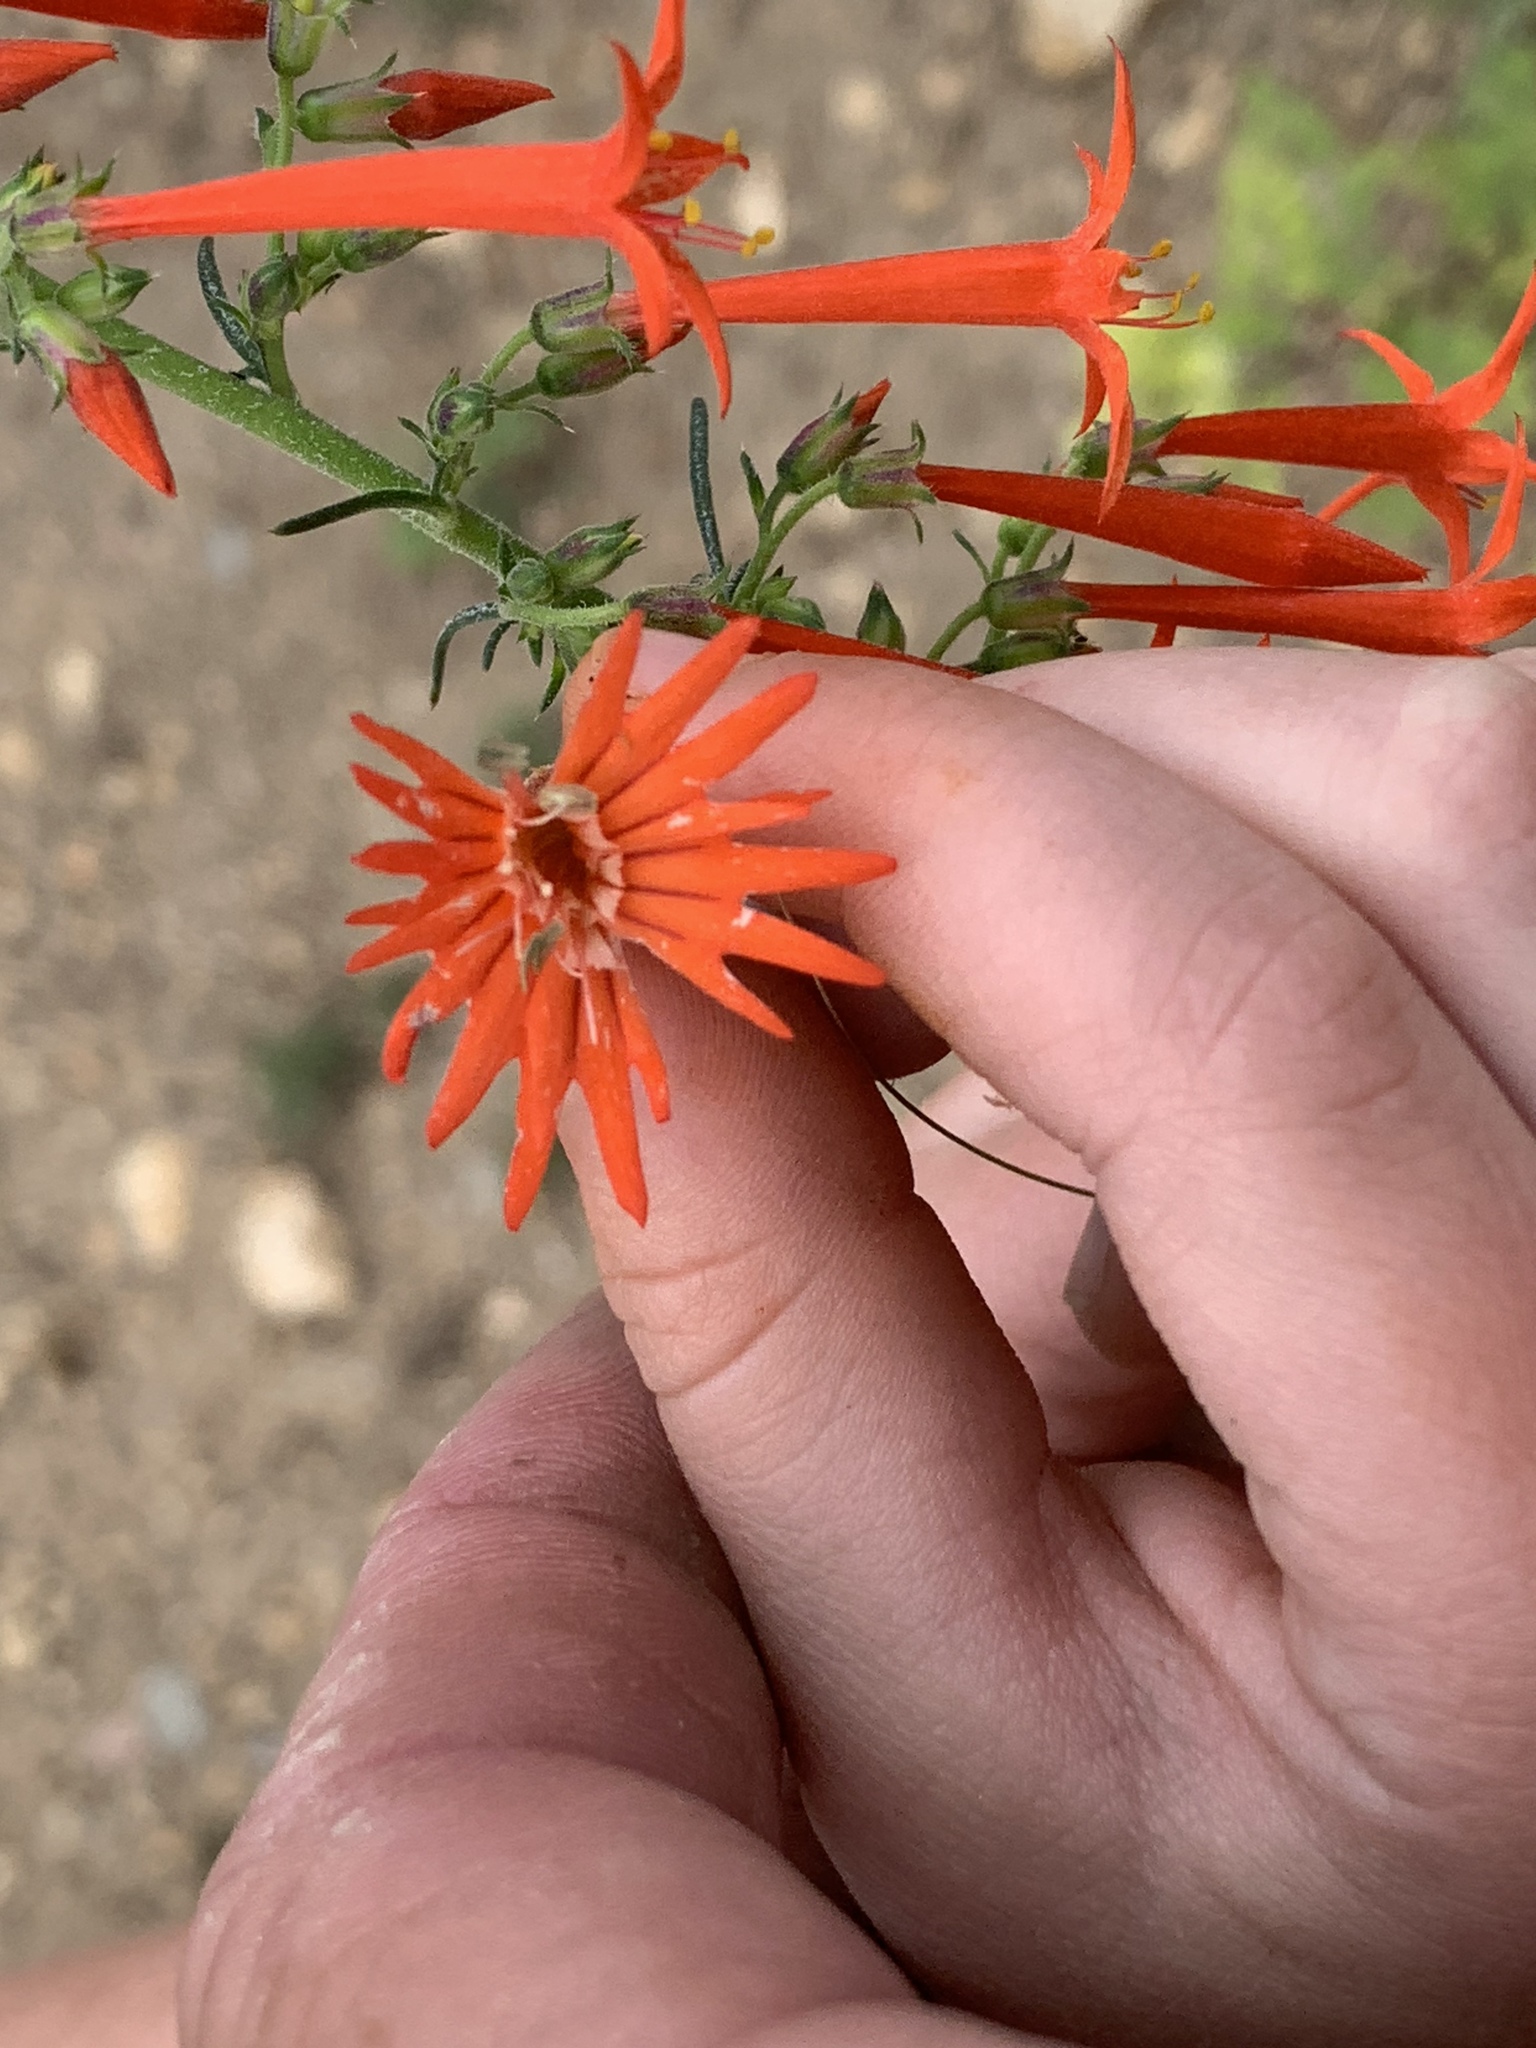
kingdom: Plantae
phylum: Tracheophyta
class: Magnoliopsida
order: Caryophyllales
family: Caryophyllaceae
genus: Silene
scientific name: Silene laciniata
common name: Indian-pink
